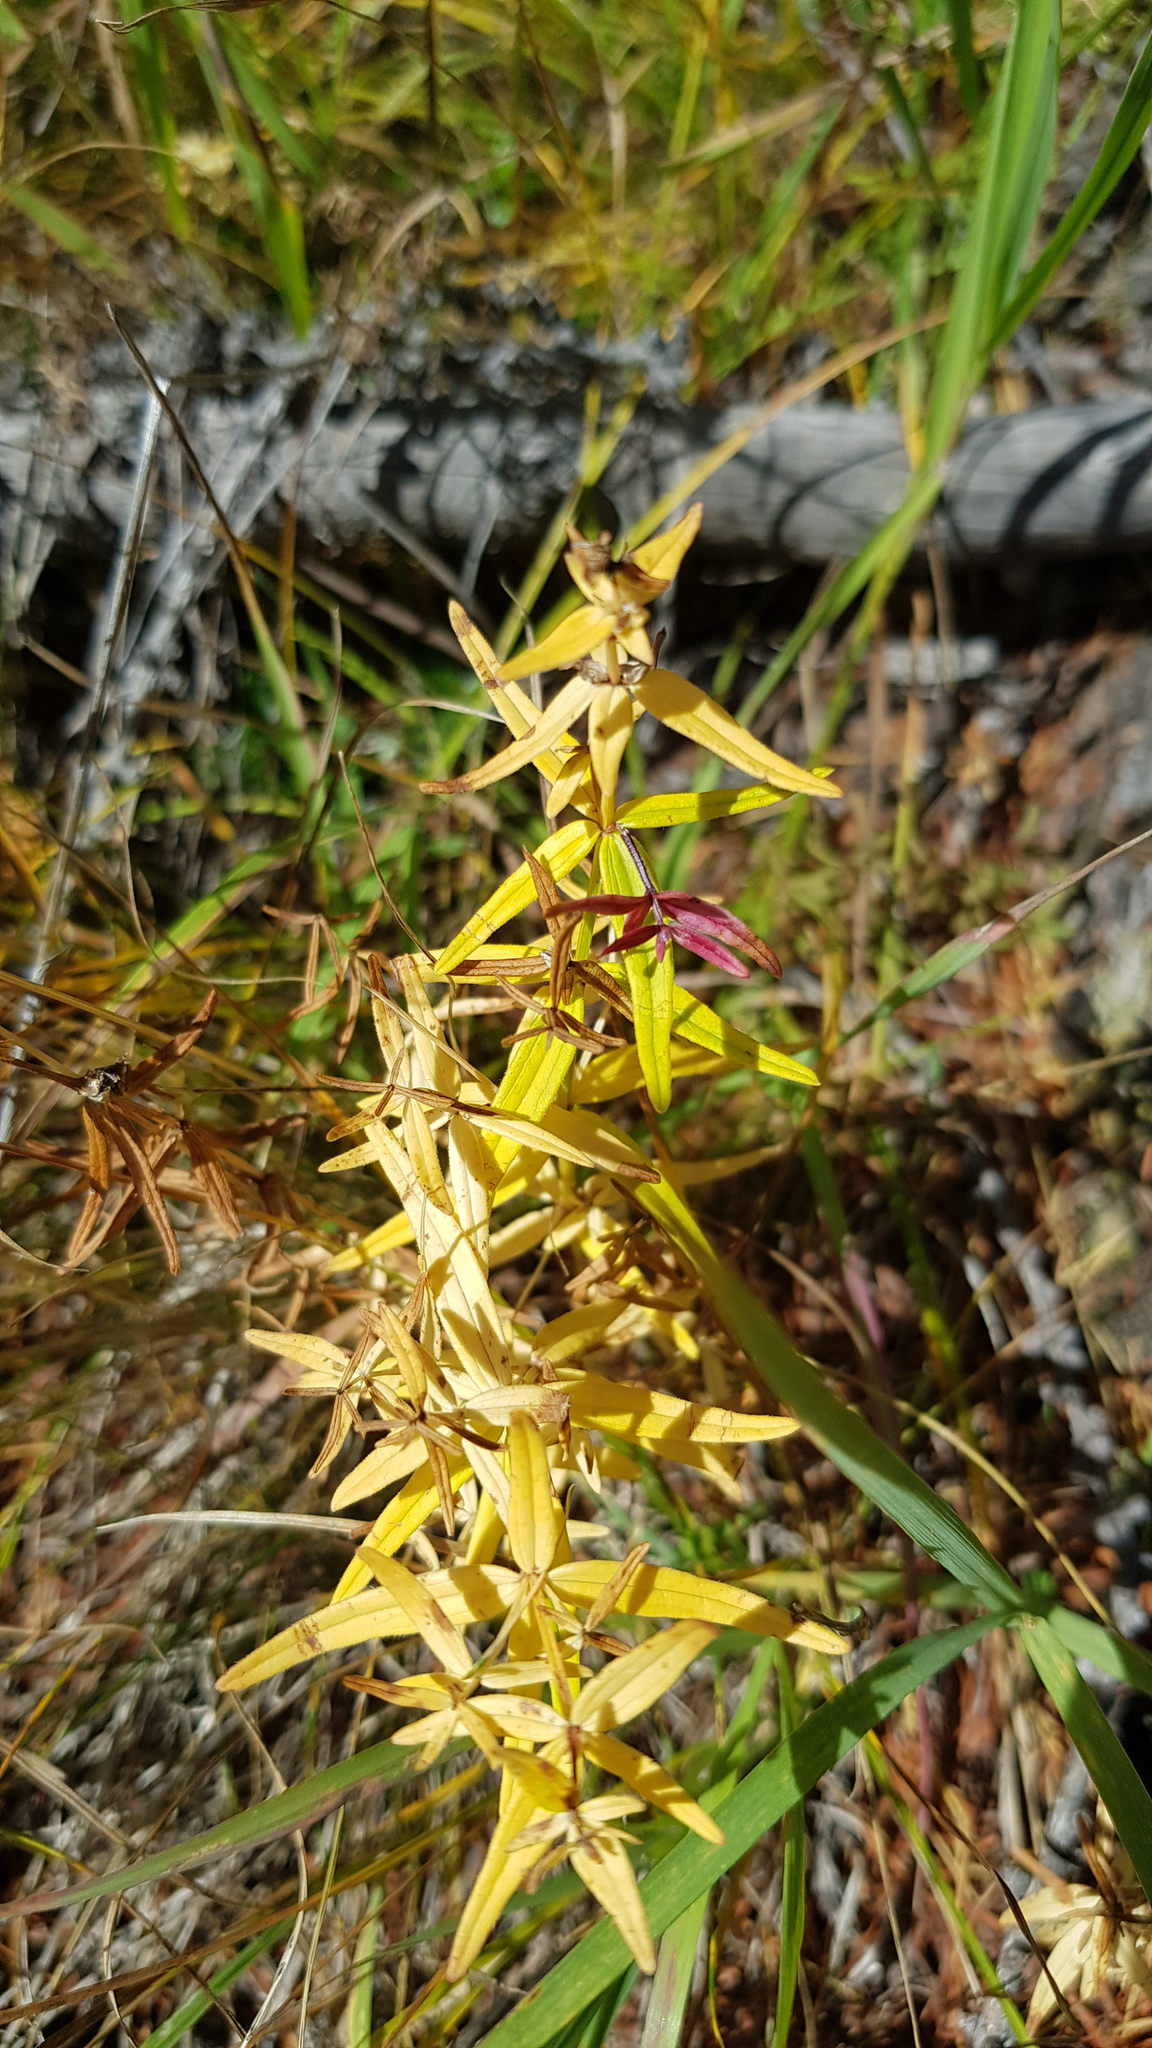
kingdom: Plantae
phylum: Tracheophyta
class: Magnoliopsida
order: Gentianales
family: Rubiaceae
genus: Galium
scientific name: Galium boreale
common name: Northern bedstraw
